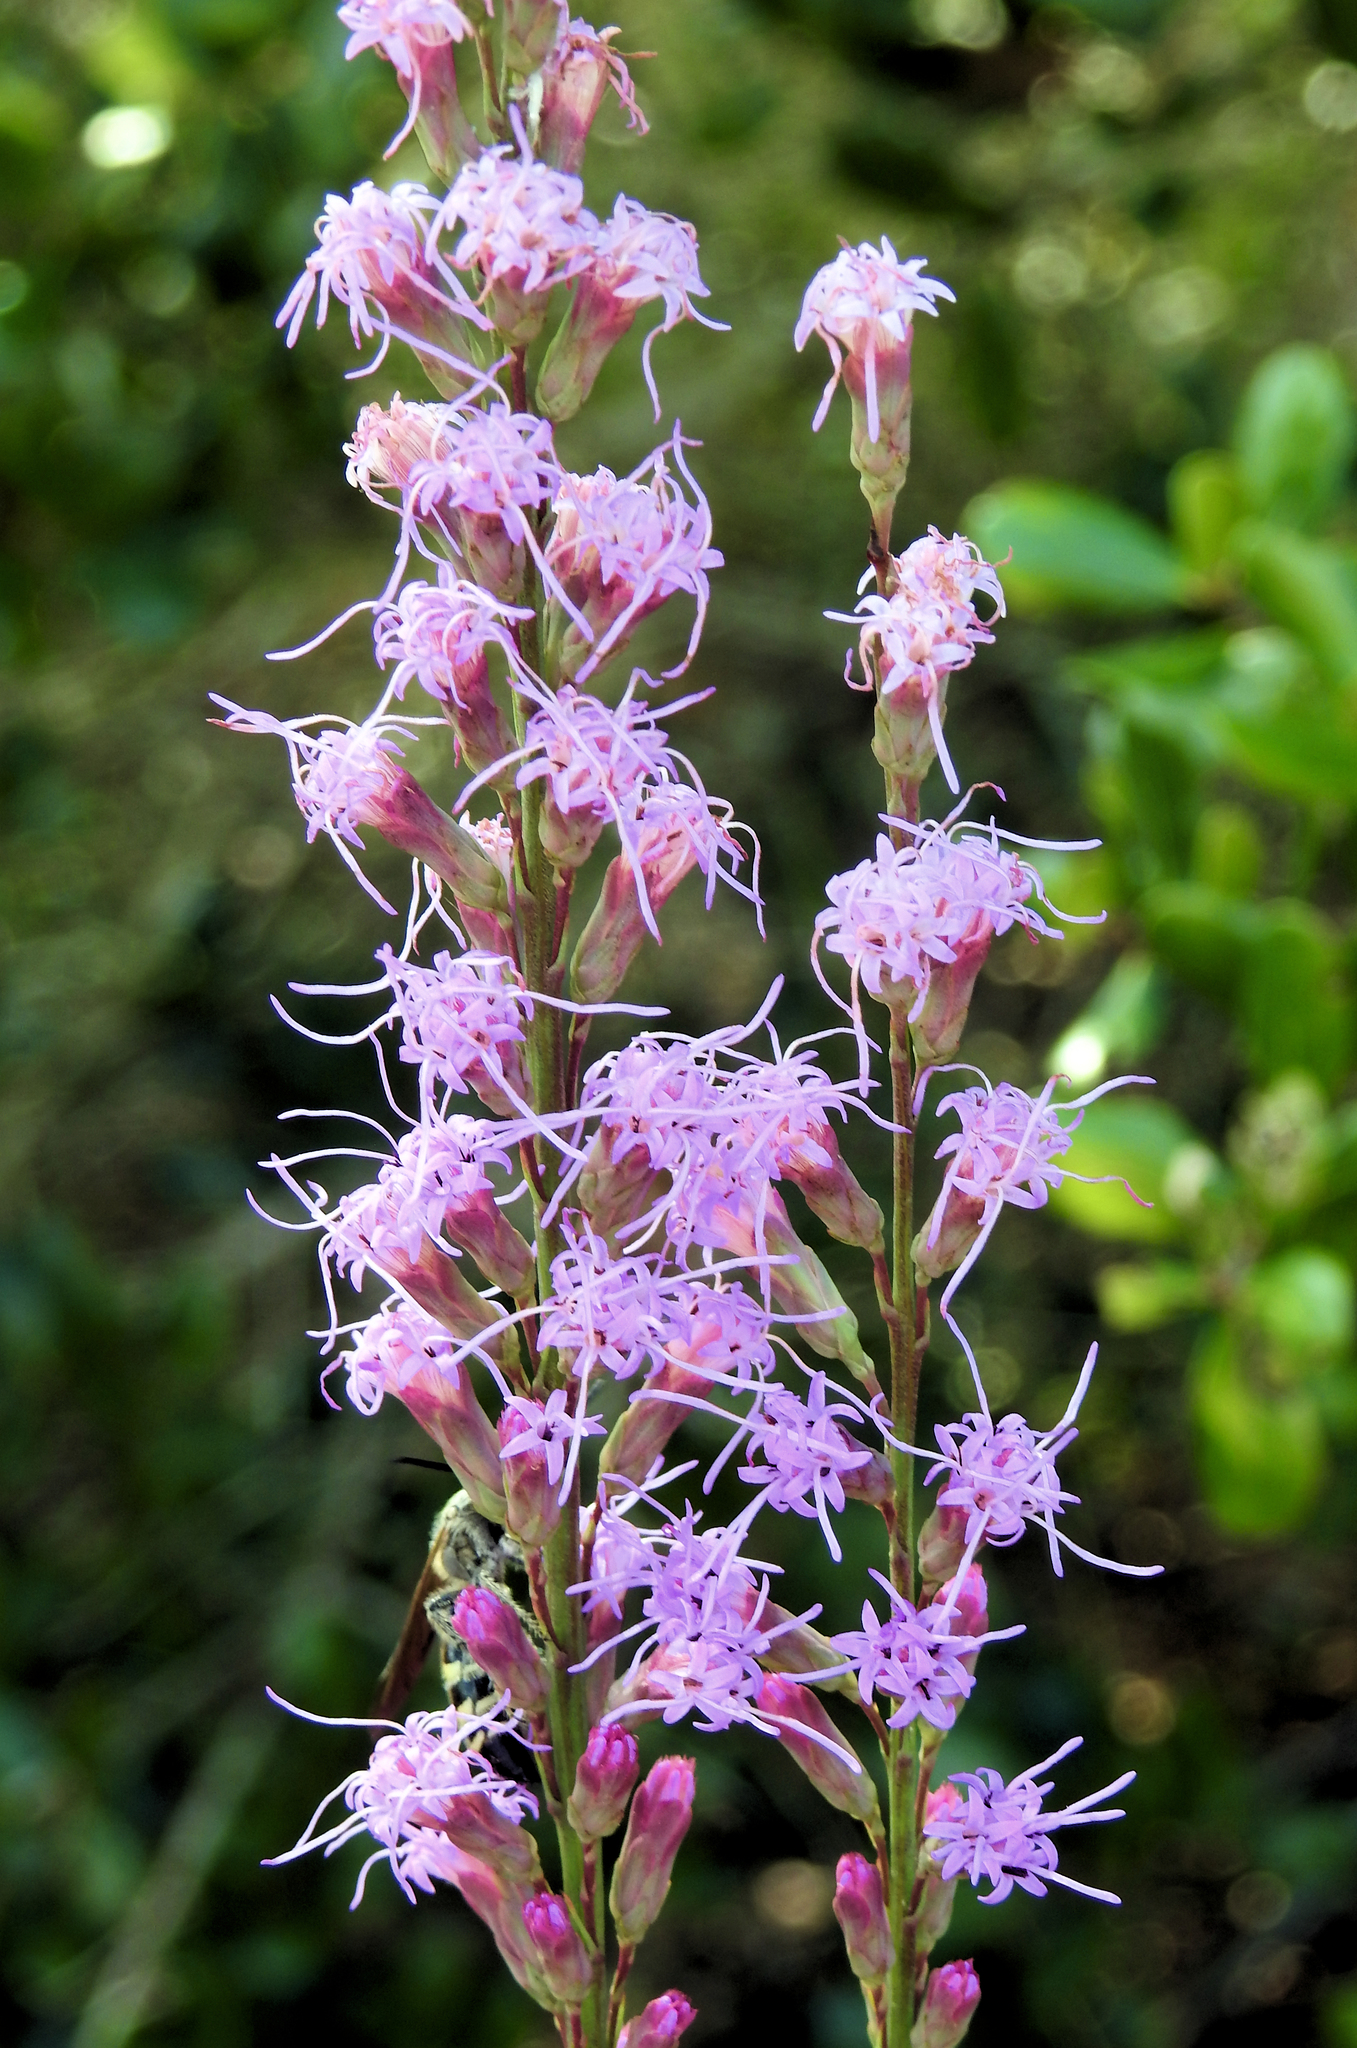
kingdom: Plantae
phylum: Tracheophyta
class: Magnoliopsida
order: Asterales
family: Asteraceae
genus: Liatris
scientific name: Liatris laevigata
